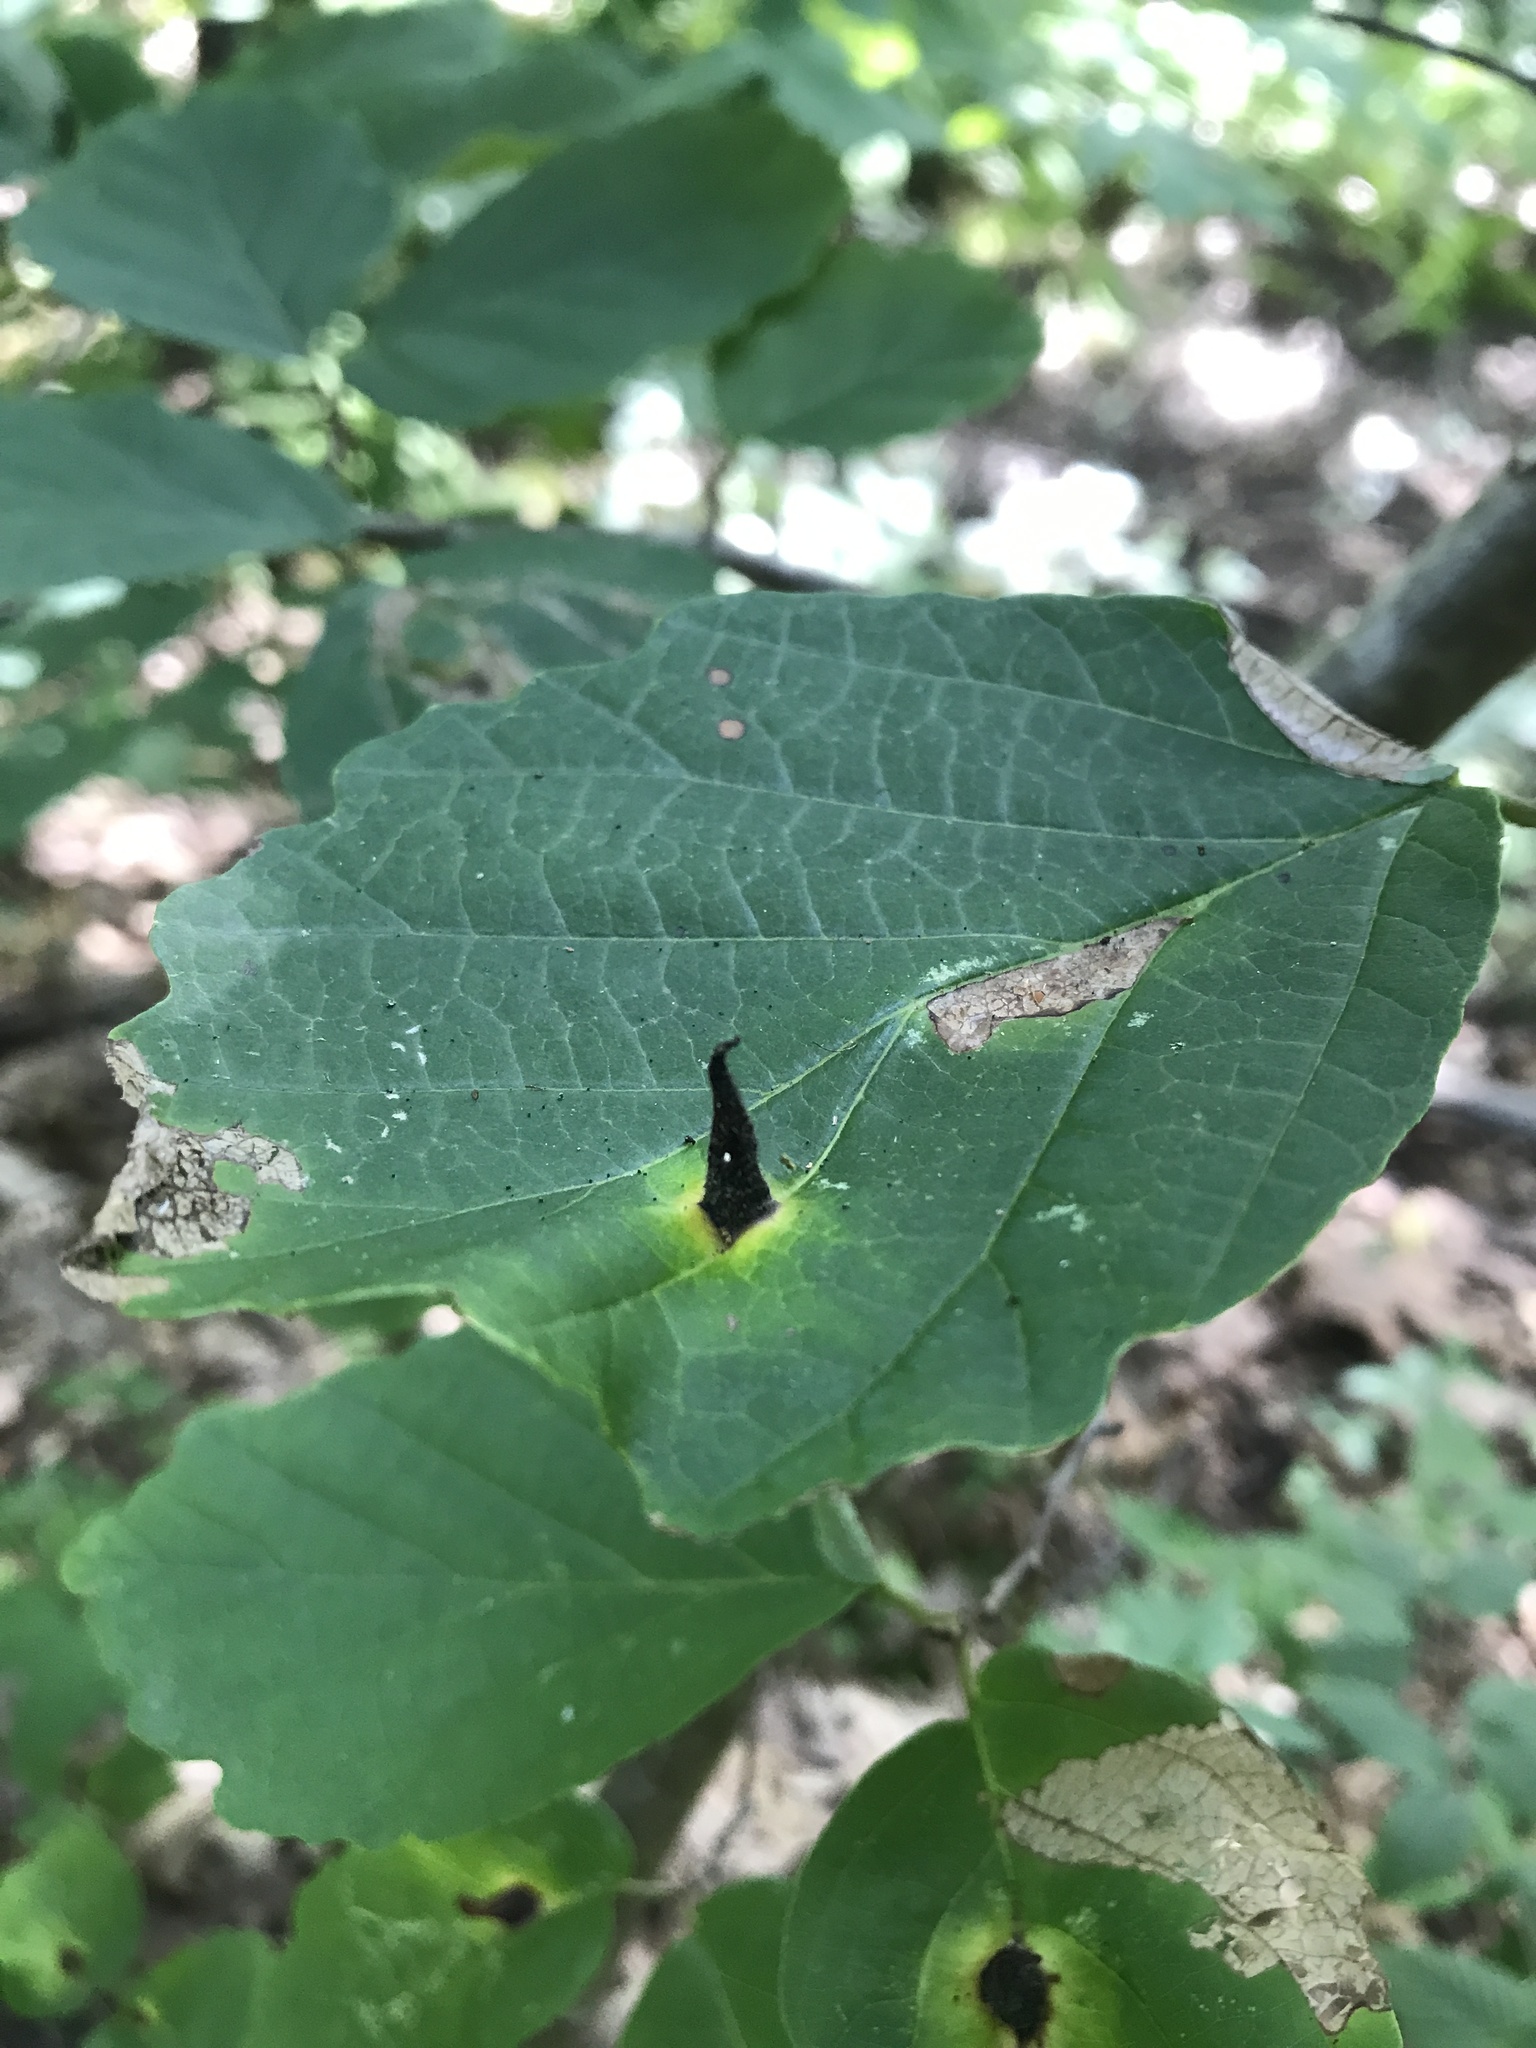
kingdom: Animalia
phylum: Arthropoda
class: Insecta
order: Hemiptera
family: Aphididae
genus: Hormaphis
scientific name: Hormaphis hamamelidis
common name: Witch-hazel cone gall aphid
